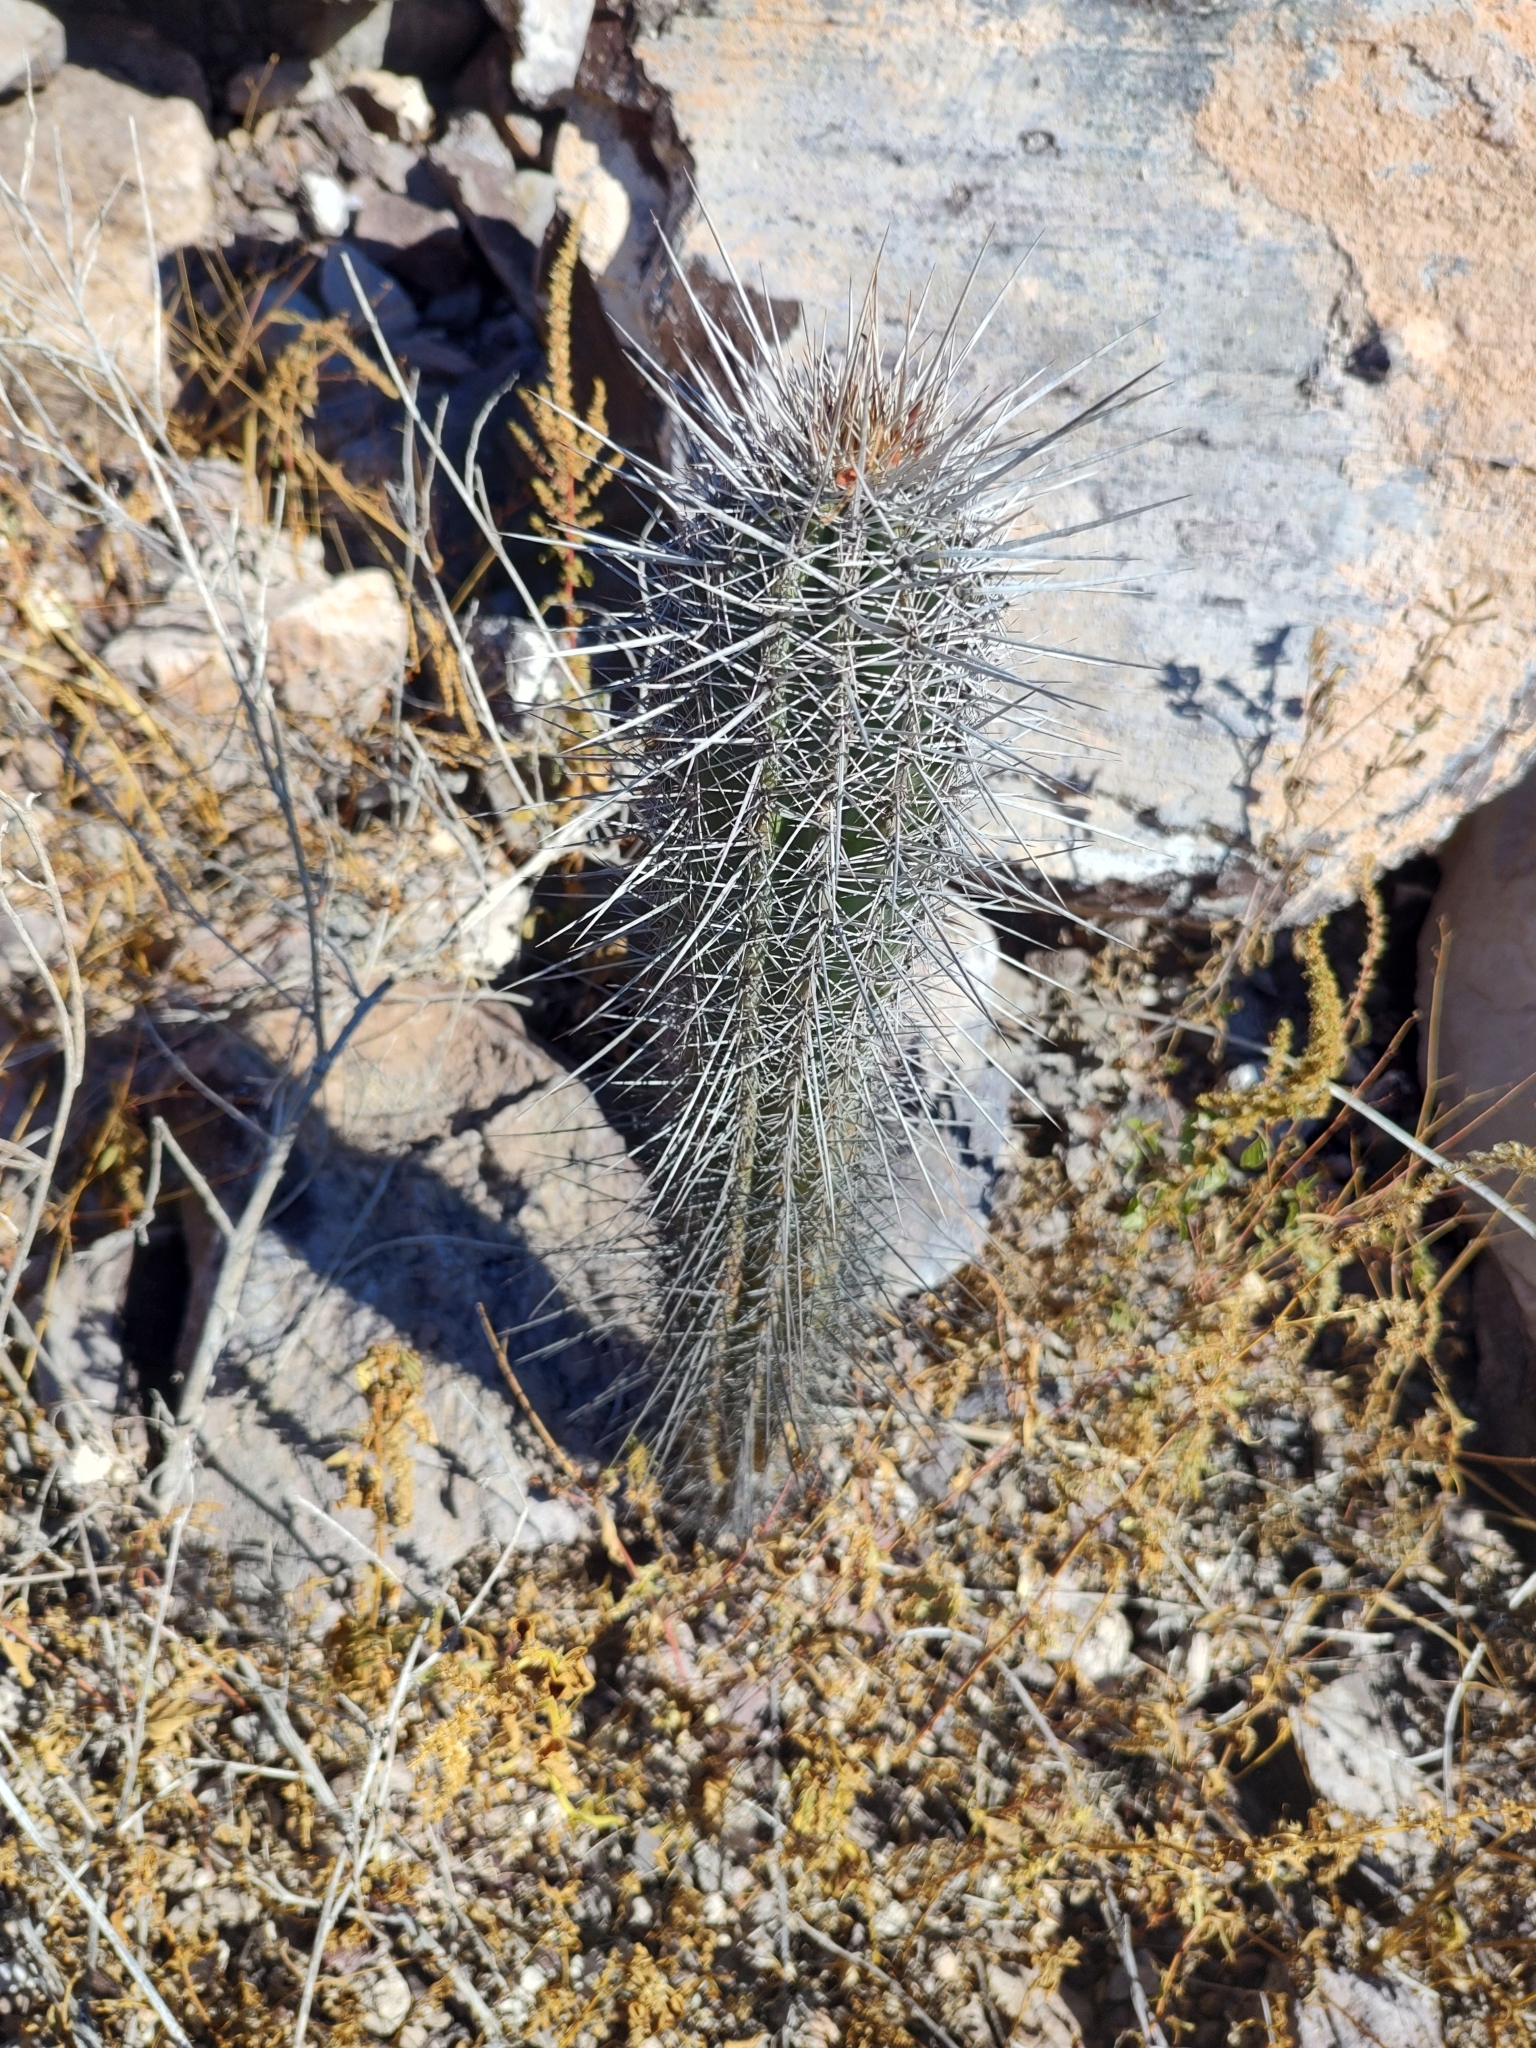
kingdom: Plantae
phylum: Tracheophyta
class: Magnoliopsida
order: Caryophyllales
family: Cactaceae
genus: Pachycereus
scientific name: Pachycereus pringlei
